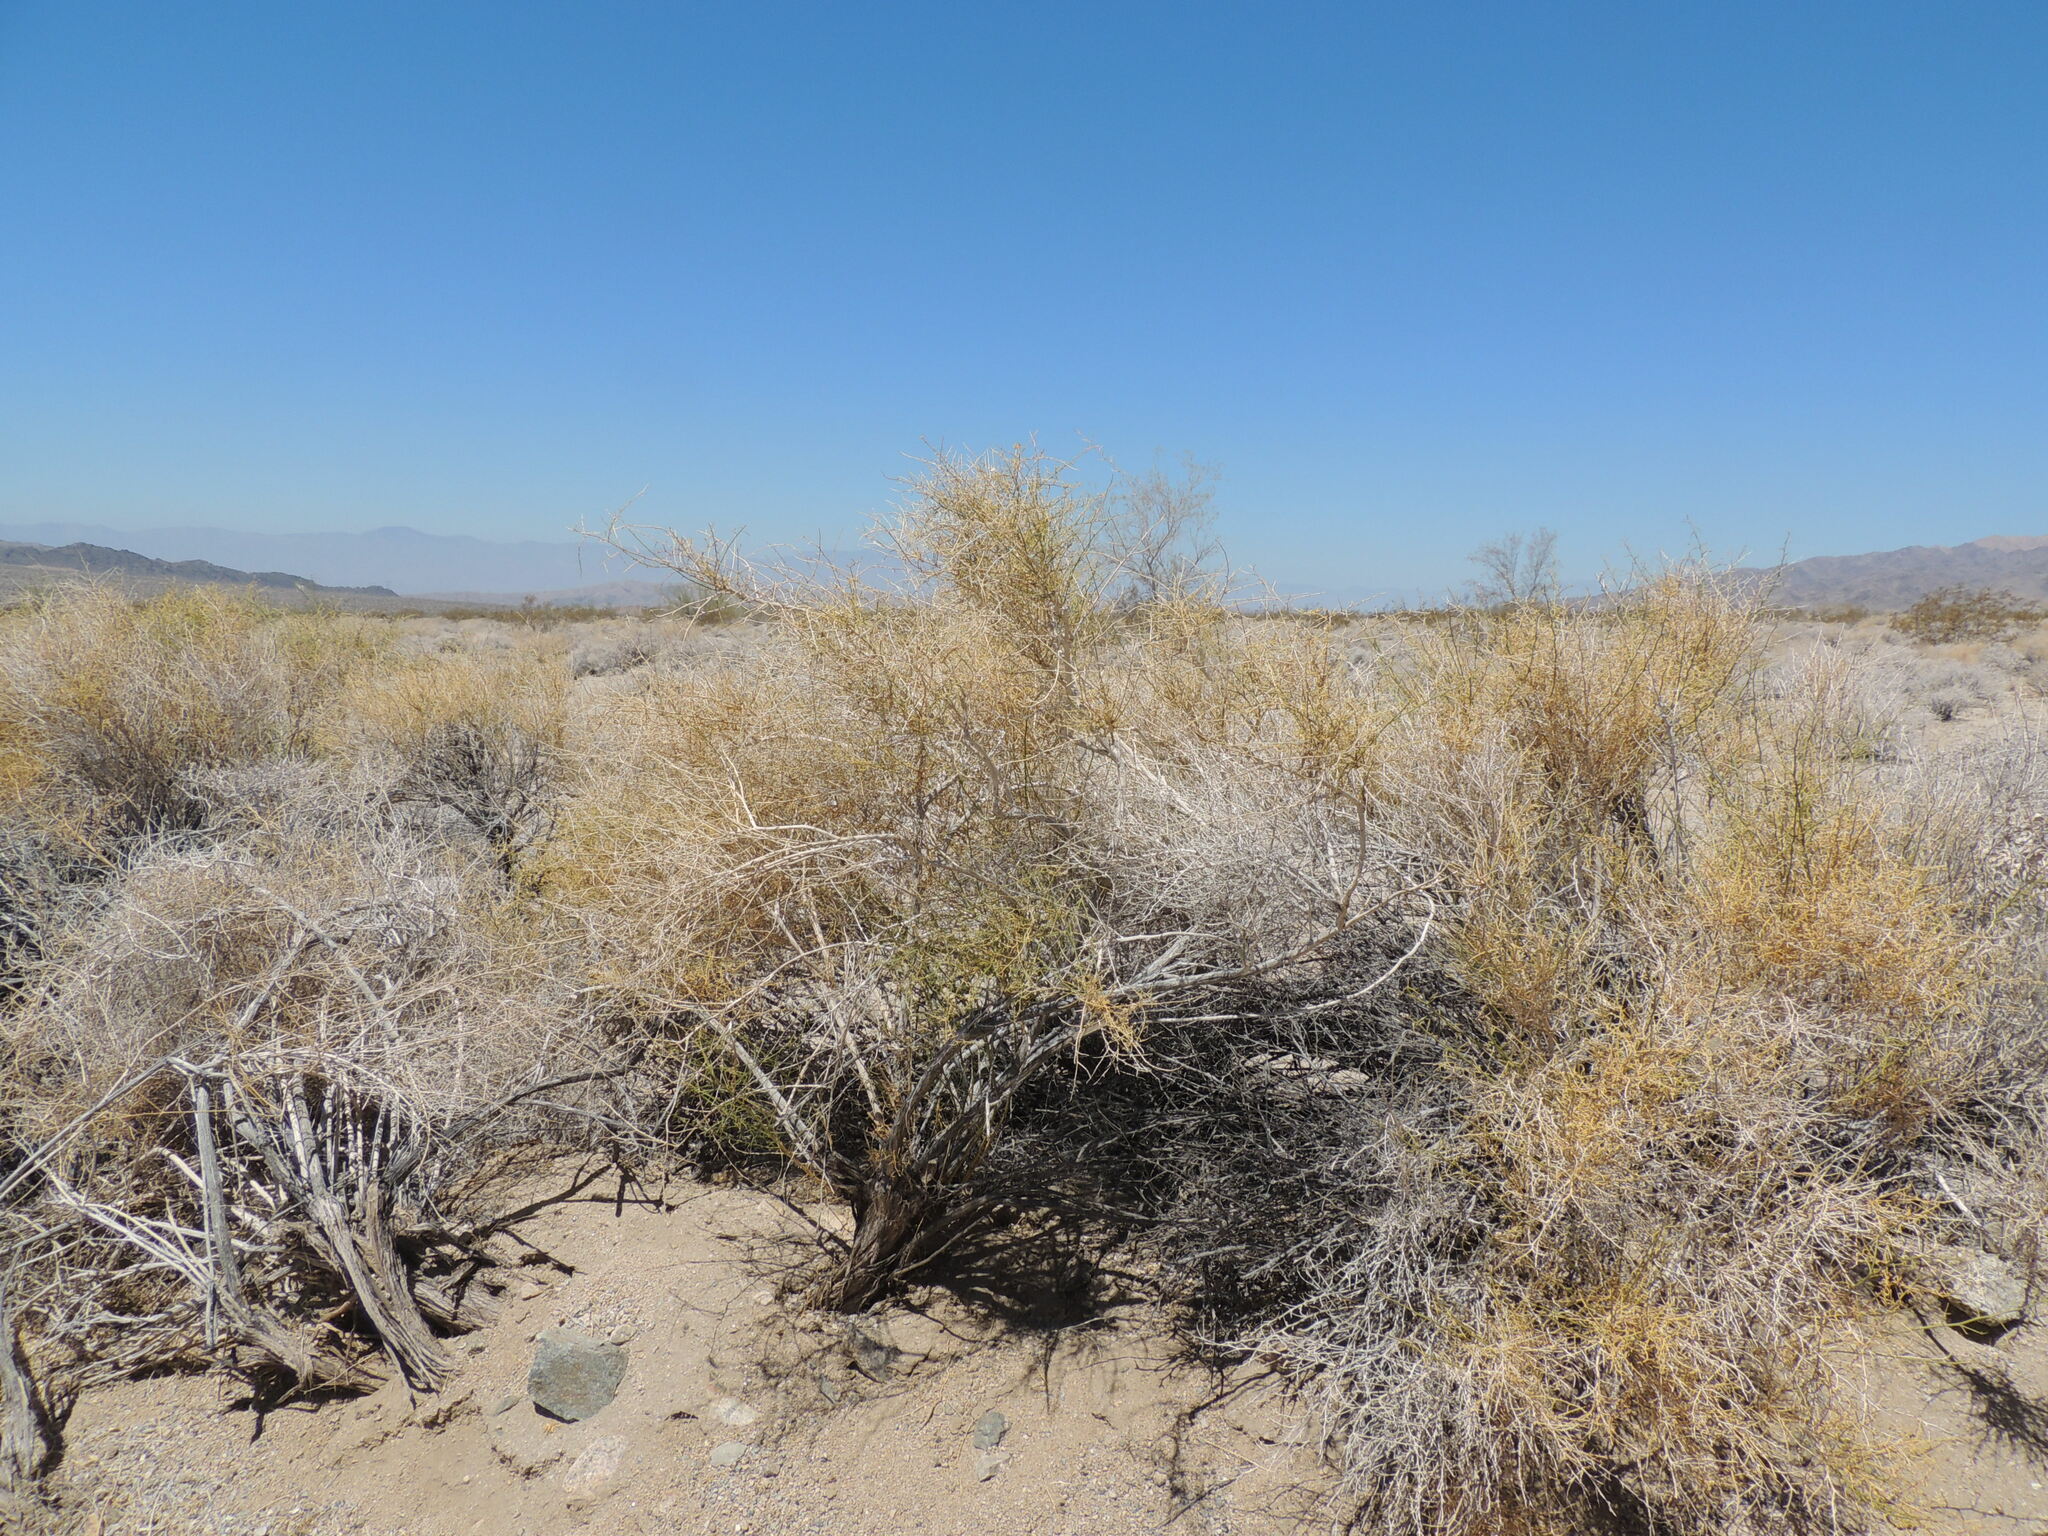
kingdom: Plantae
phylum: Tracheophyta
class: Magnoliopsida
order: Asterales
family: Asteraceae
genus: Ambrosia
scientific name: Ambrosia salsola
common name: Burrobrush
